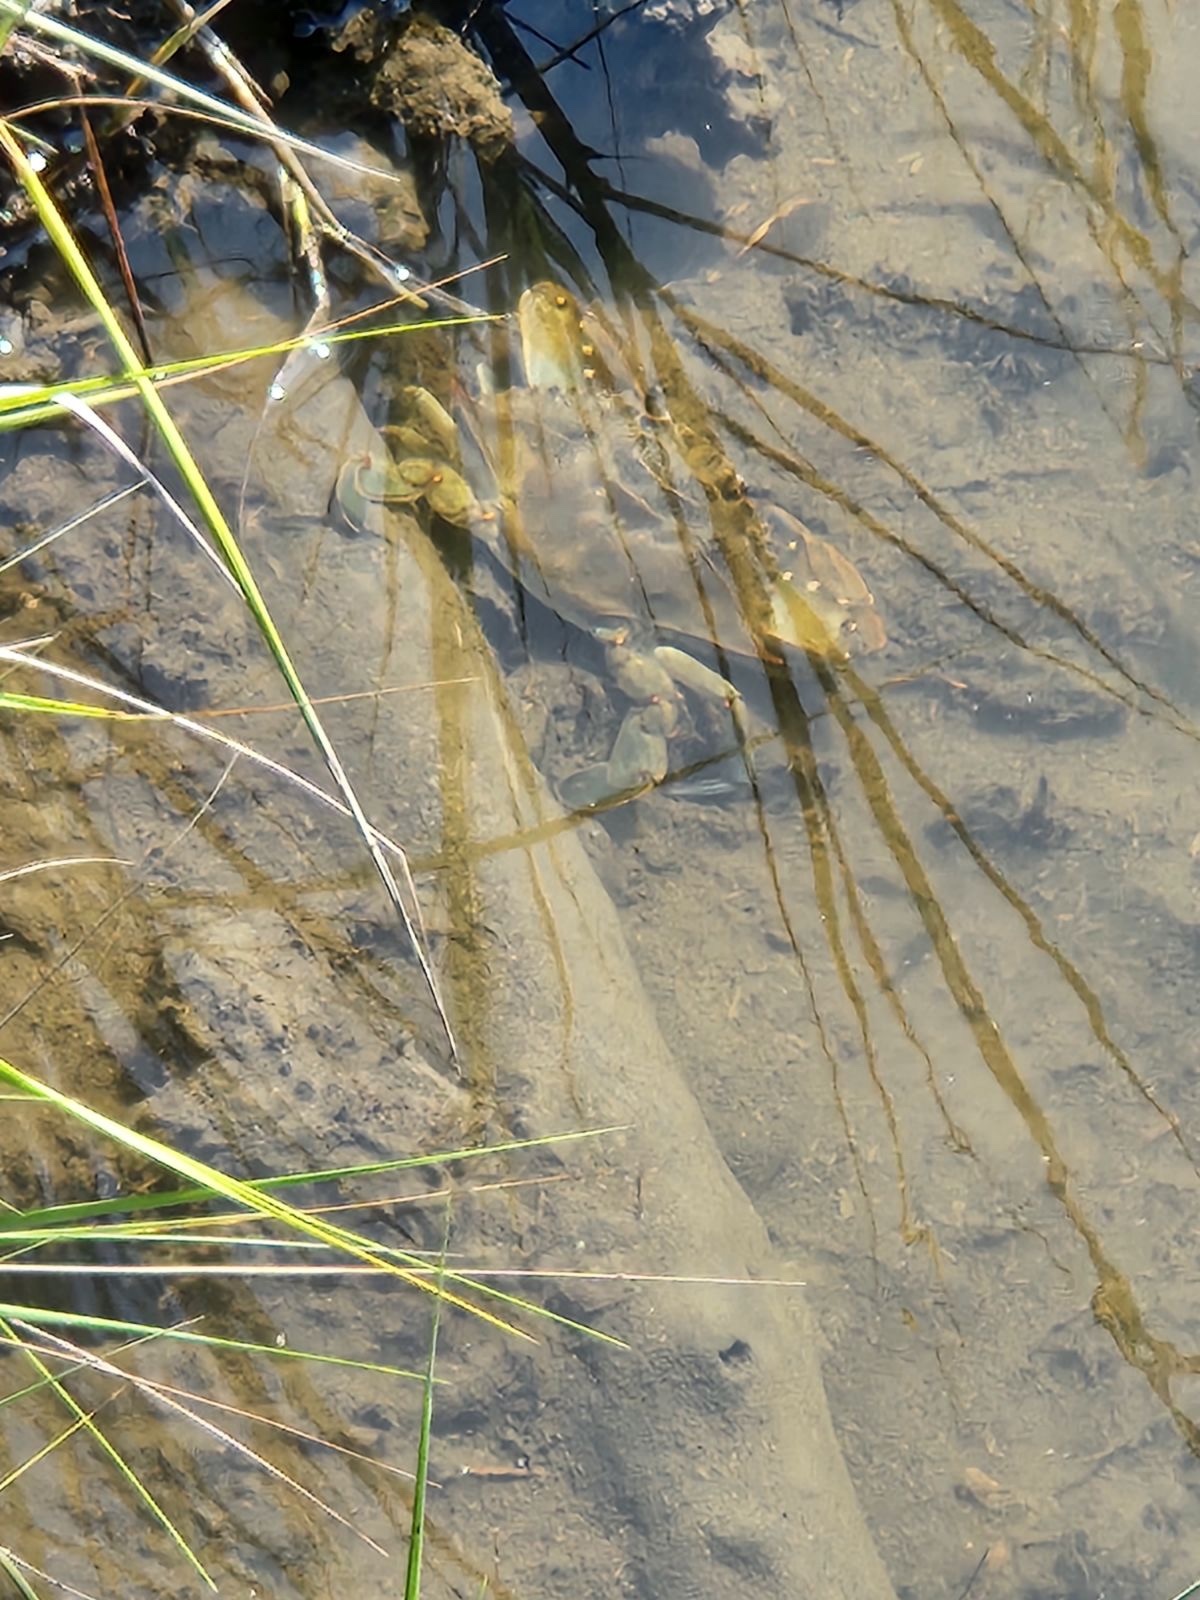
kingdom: Animalia
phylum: Arthropoda
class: Malacostraca
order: Decapoda
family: Portunidae
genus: Callinectes
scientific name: Callinectes sapidus
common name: Blue crab
